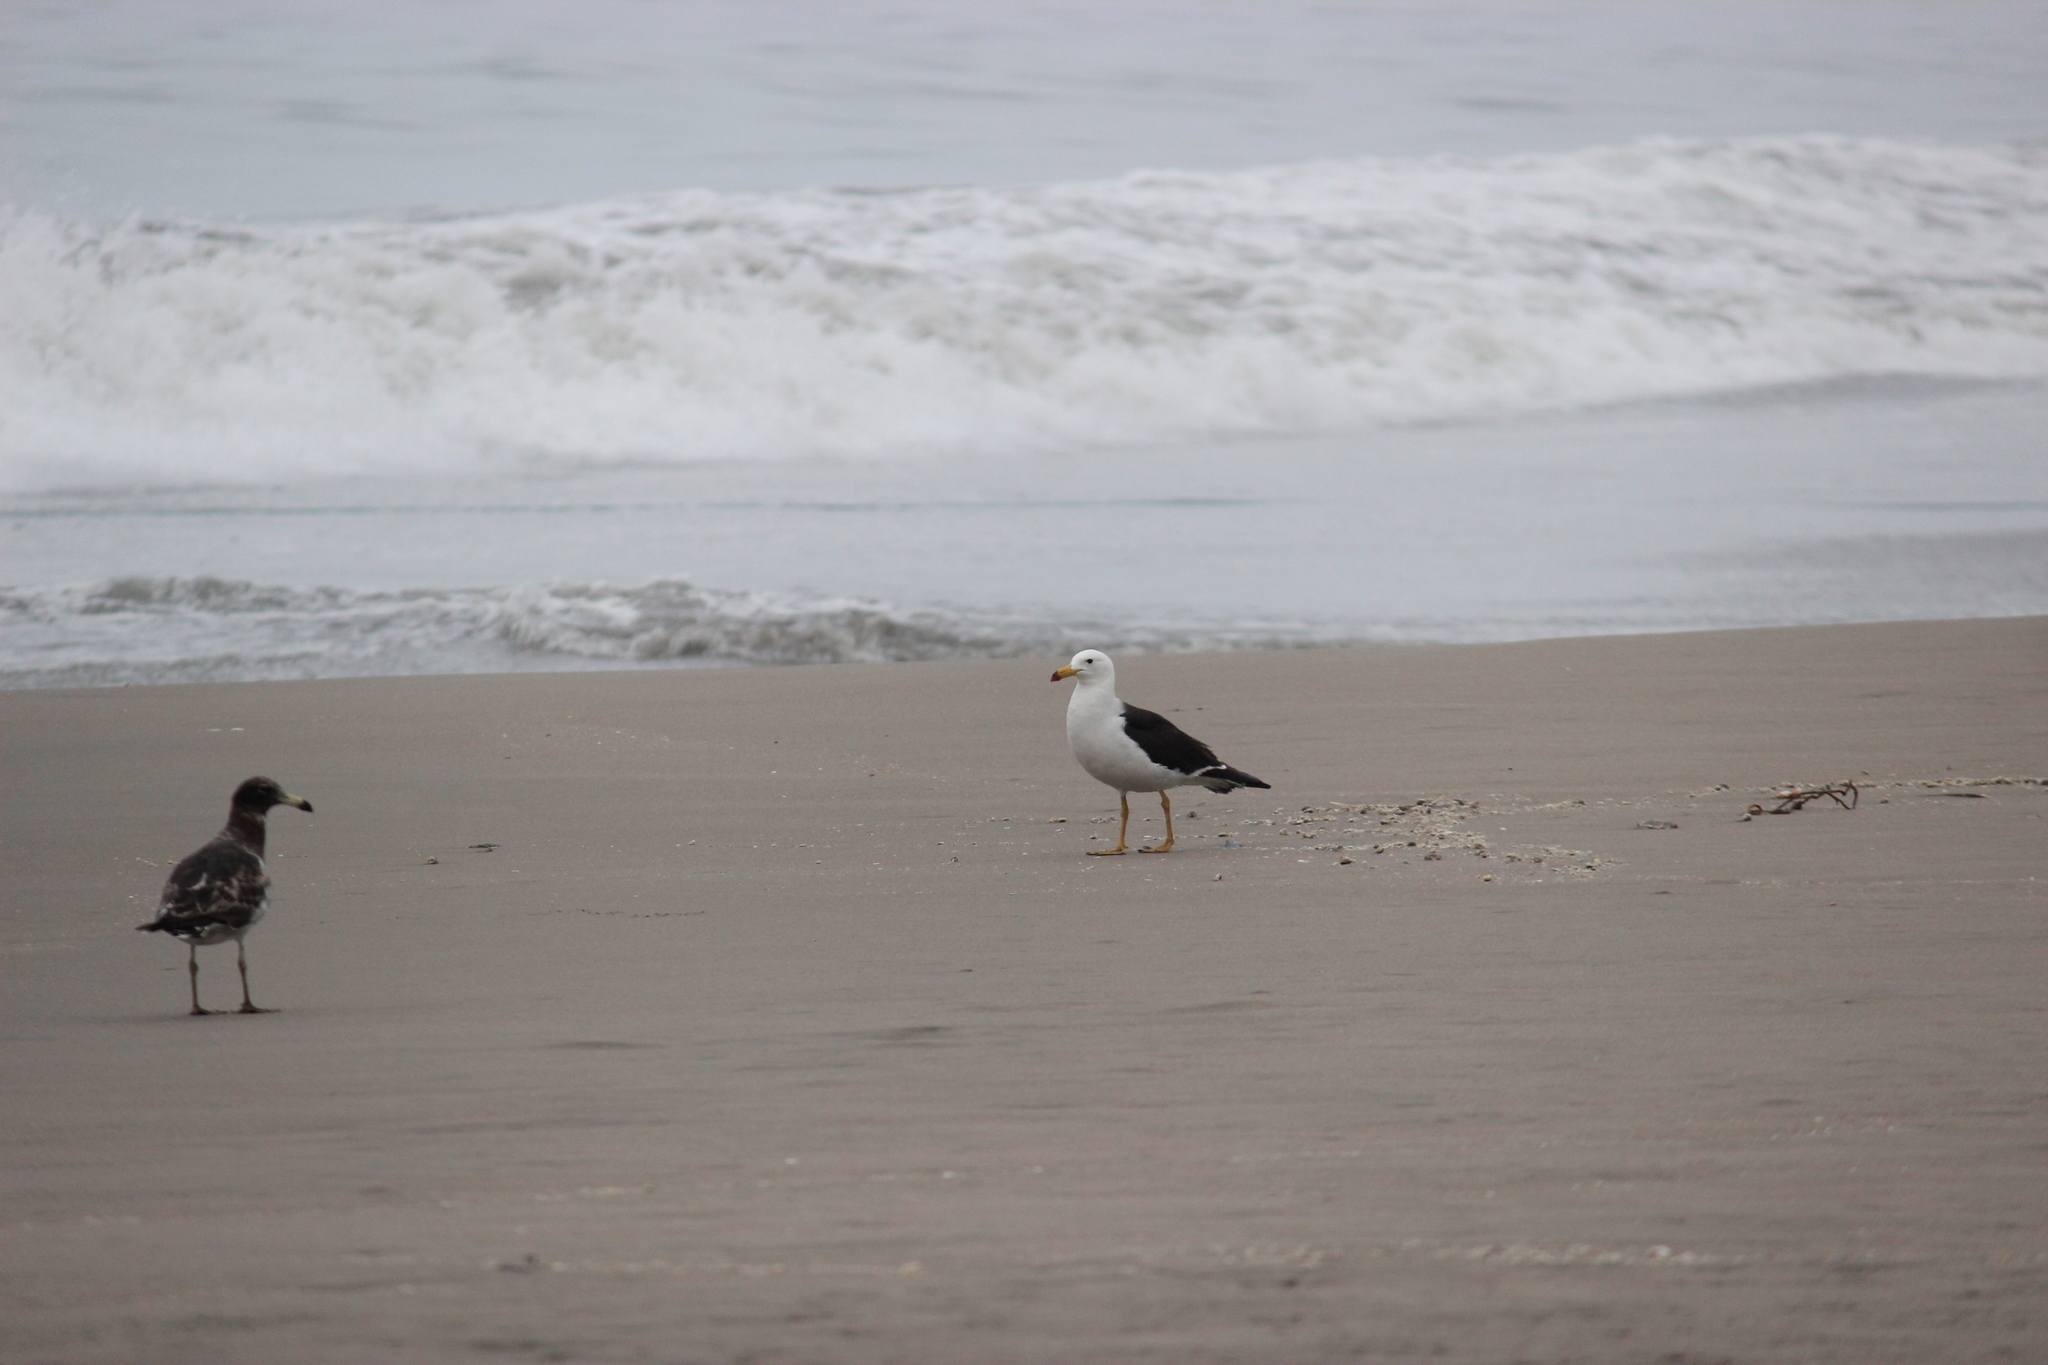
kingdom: Animalia
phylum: Chordata
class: Aves
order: Charadriiformes
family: Laridae
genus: Larus
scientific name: Larus belcheri
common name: Belcher's gull
